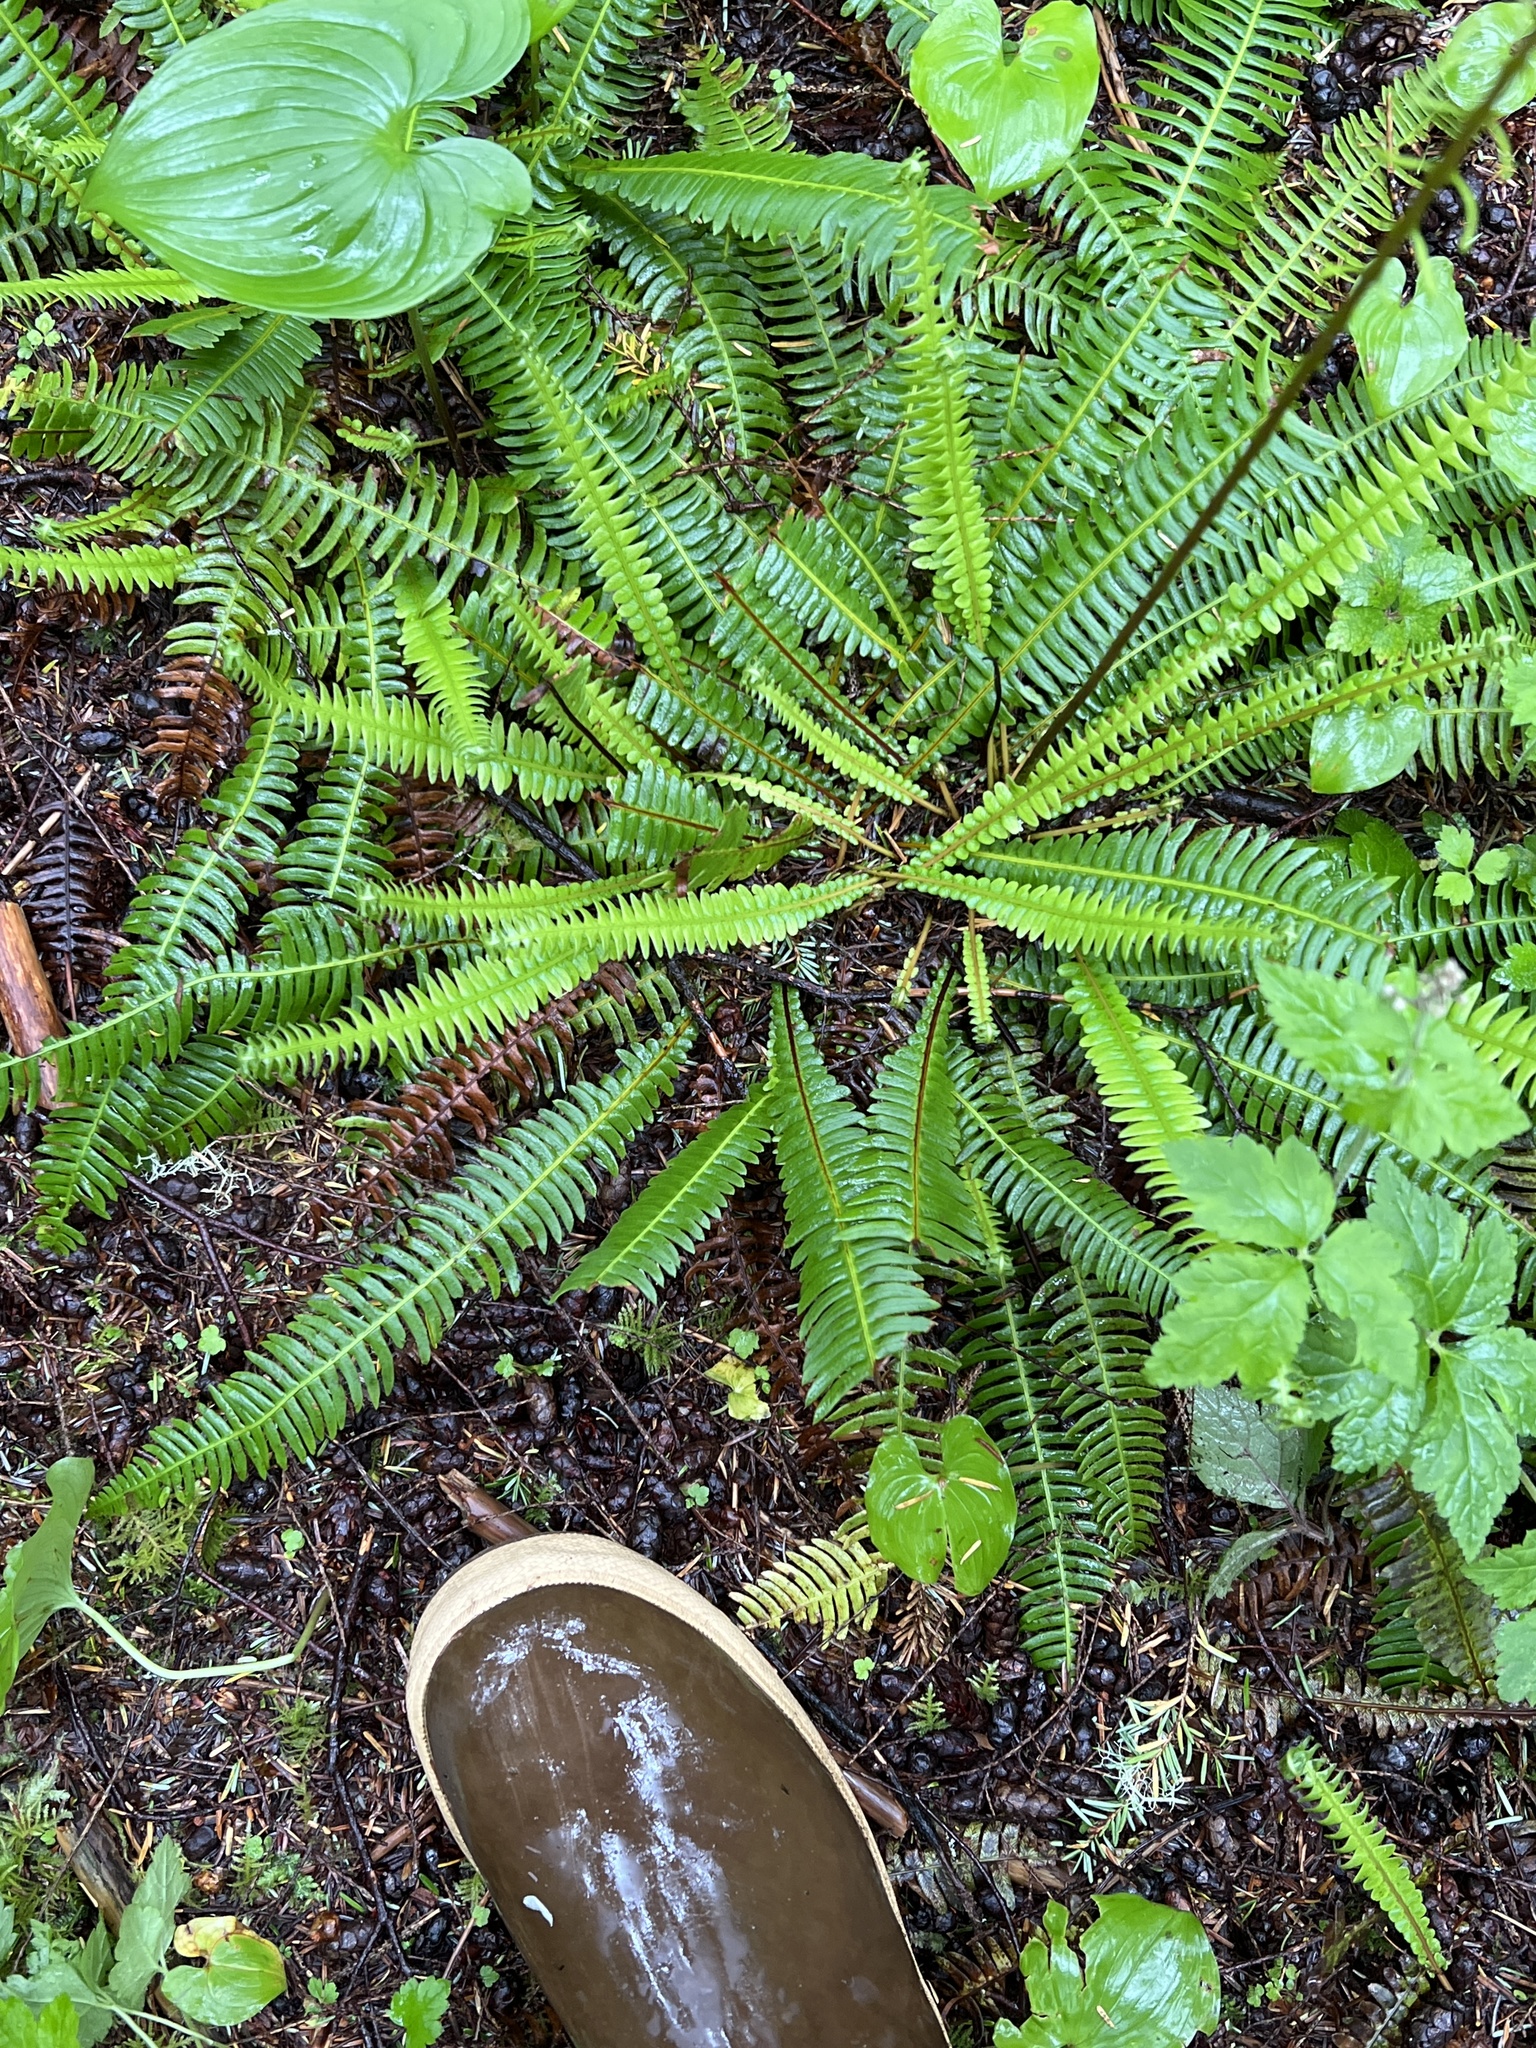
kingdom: Plantae
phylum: Tracheophyta
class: Polypodiopsida
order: Polypodiales
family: Blechnaceae
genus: Struthiopteris
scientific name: Struthiopteris spicant
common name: Deer fern
